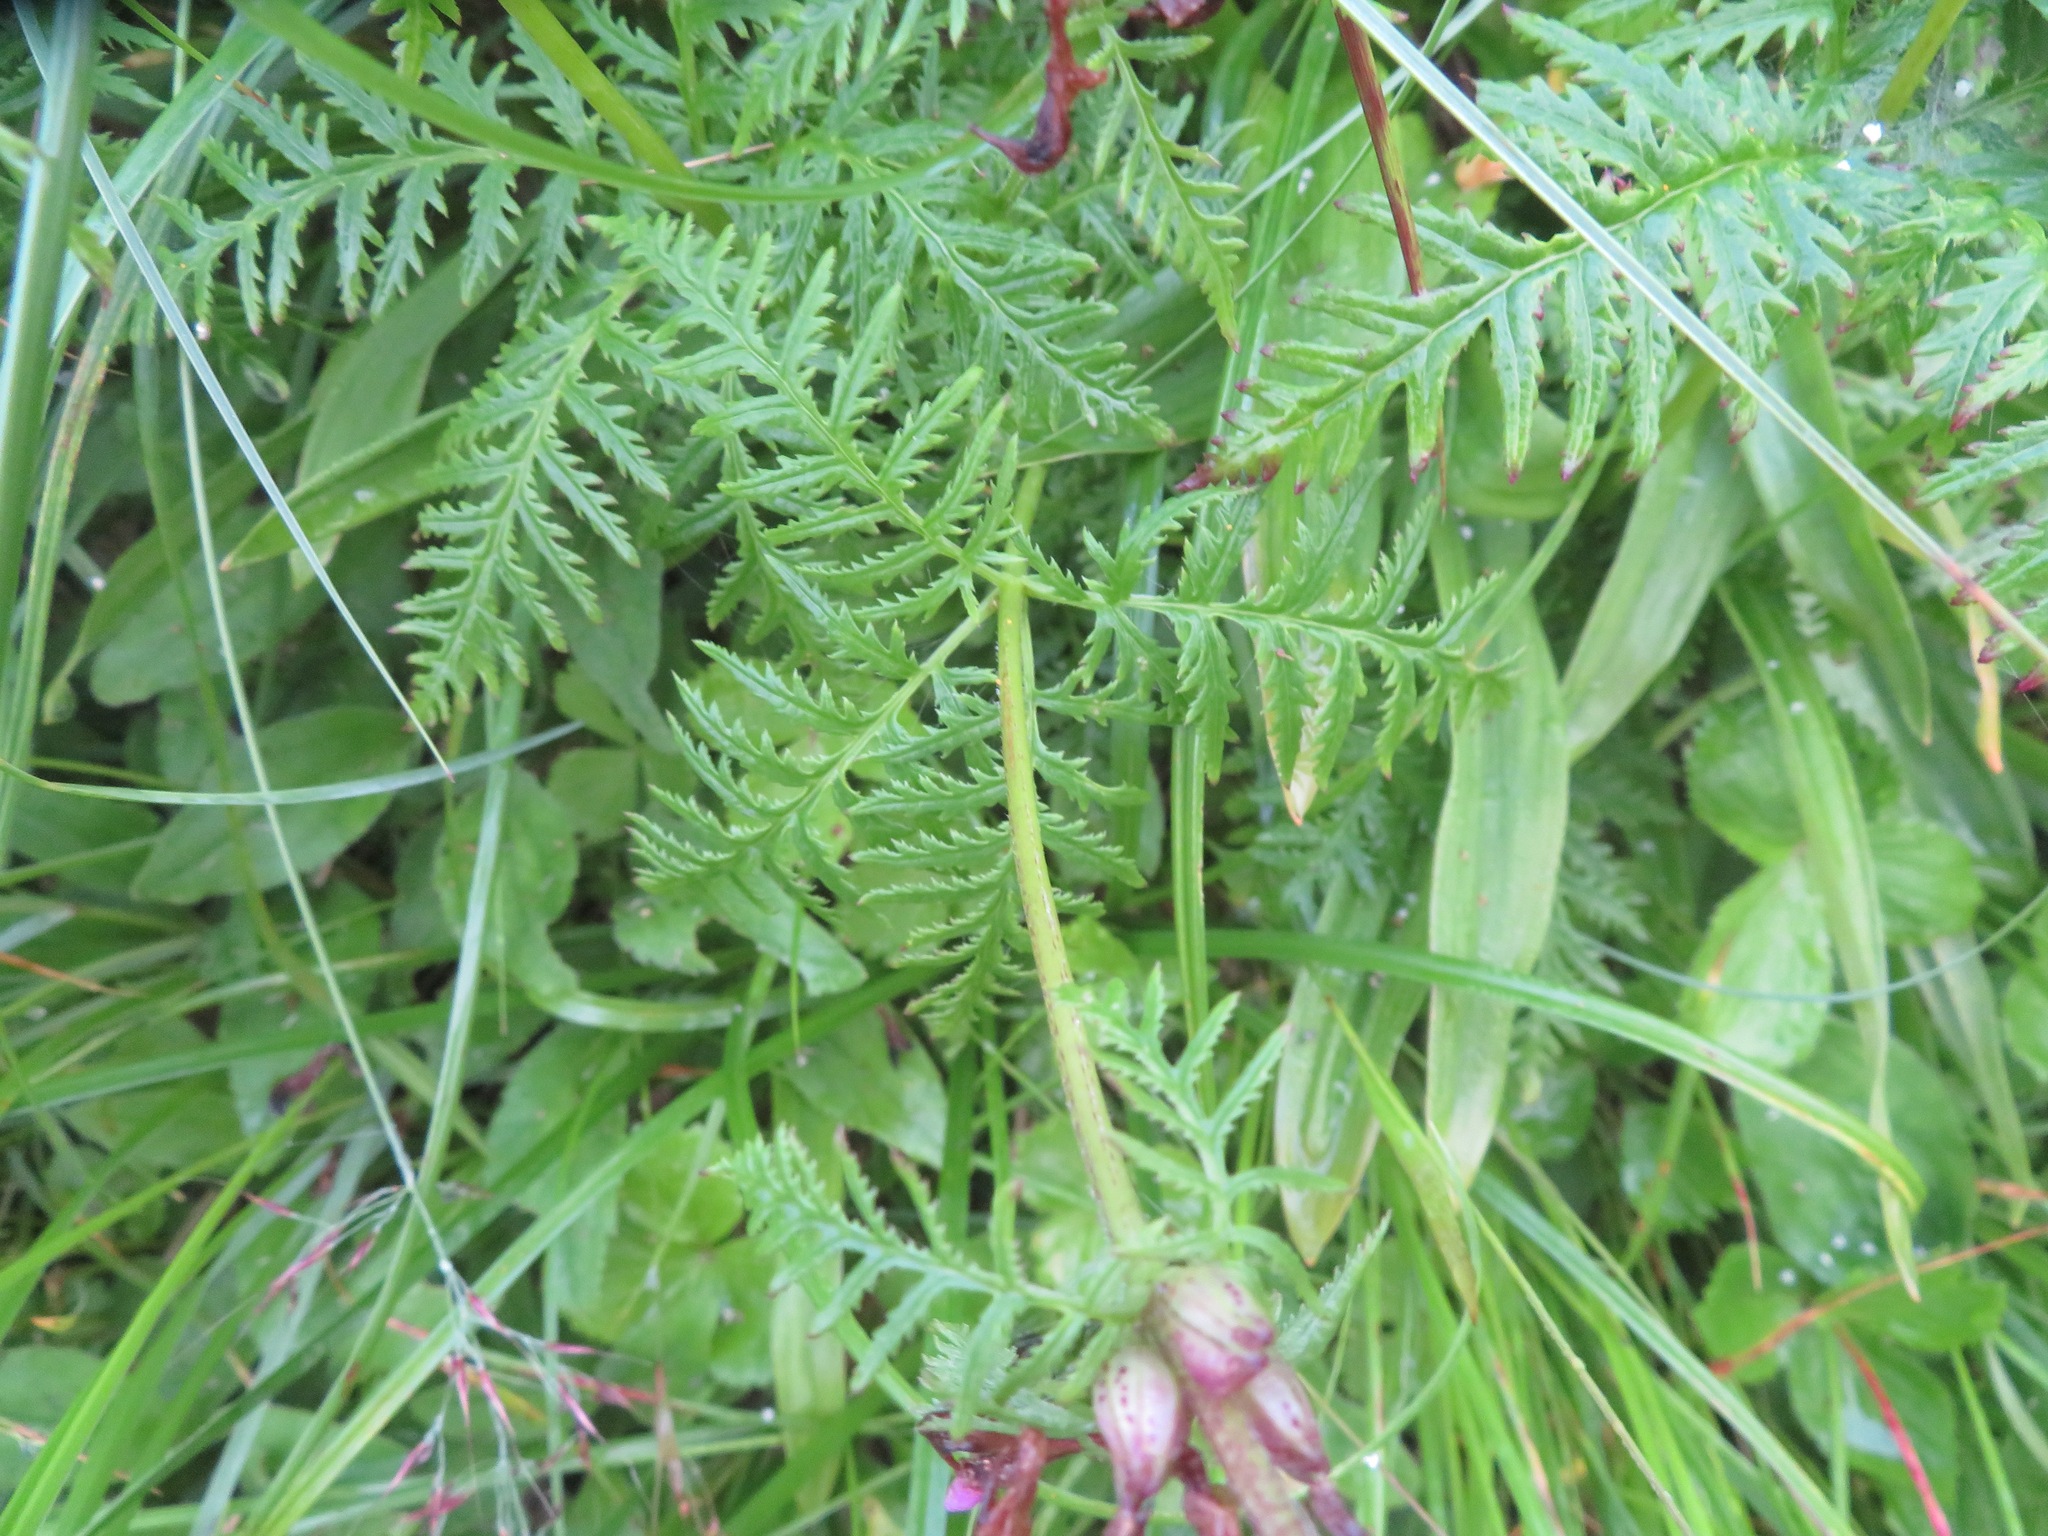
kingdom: Plantae
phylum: Tracheophyta
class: Magnoliopsida
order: Lamiales
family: Orobanchaceae
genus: Pedicularis
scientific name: Pedicularis chamissonis
